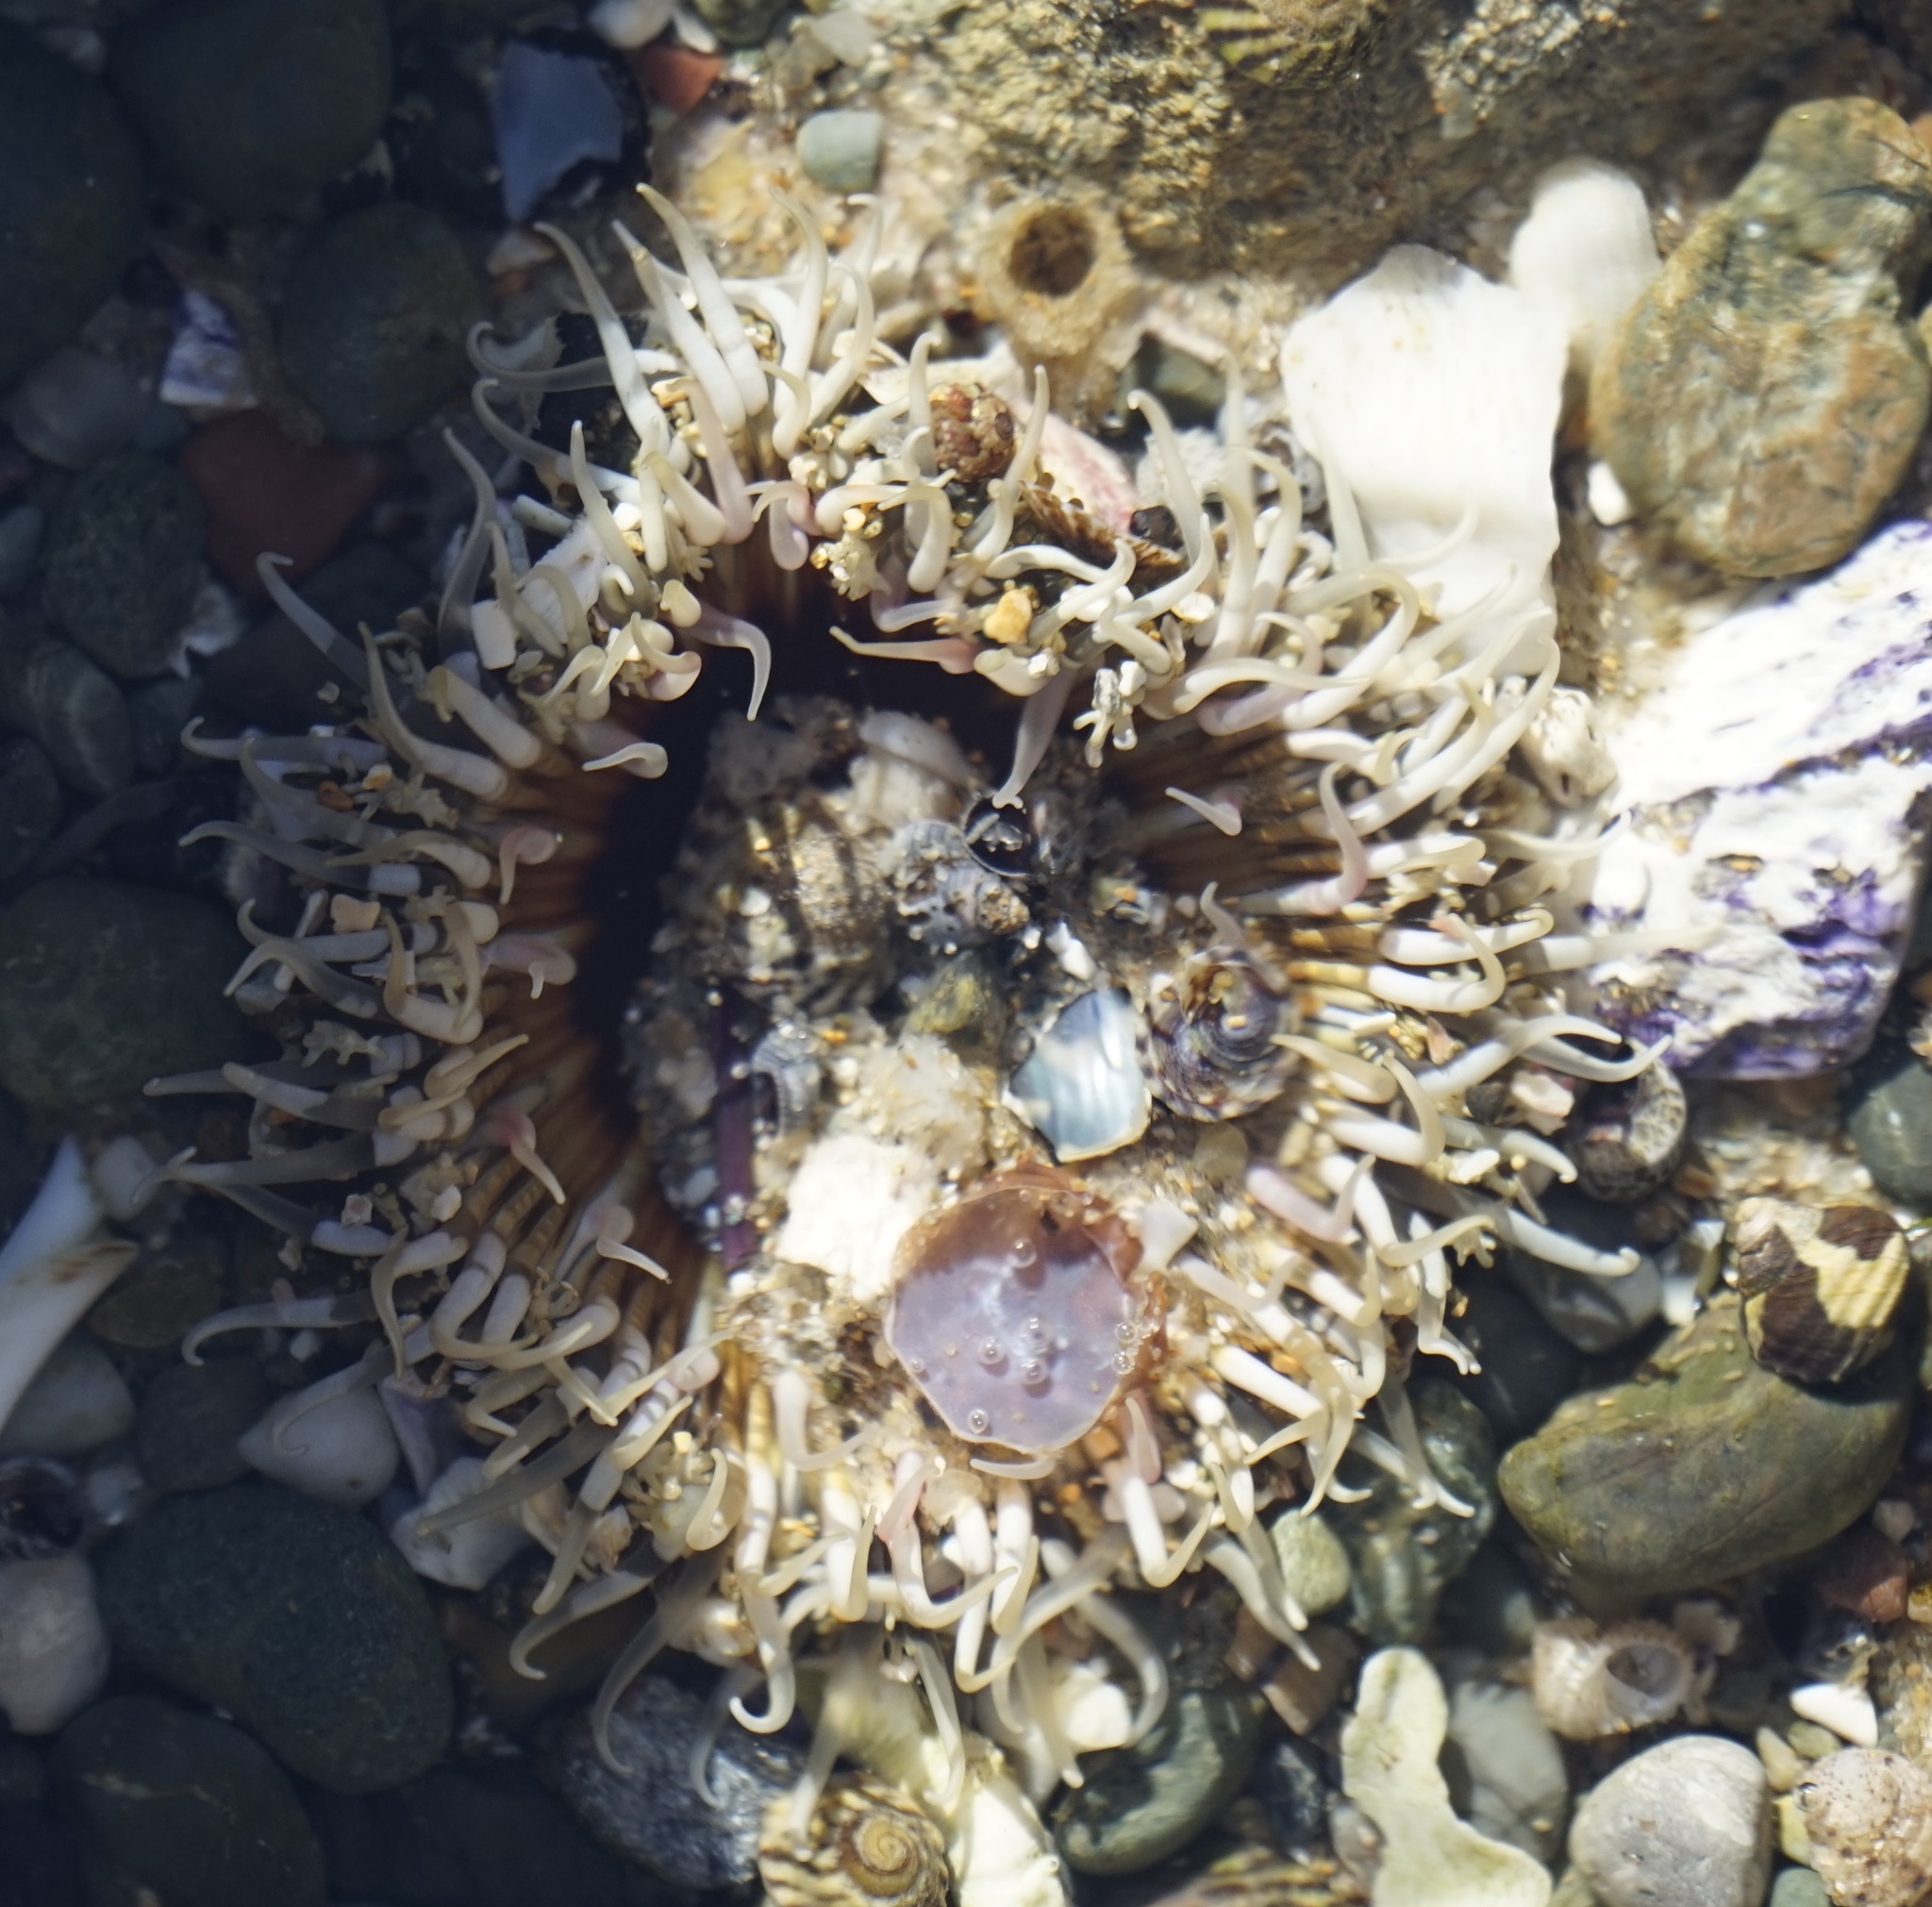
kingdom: Animalia
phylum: Cnidaria
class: Anthozoa
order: Actiniaria
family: Actiniidae
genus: Oulactis
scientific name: Oulactis muscosa
